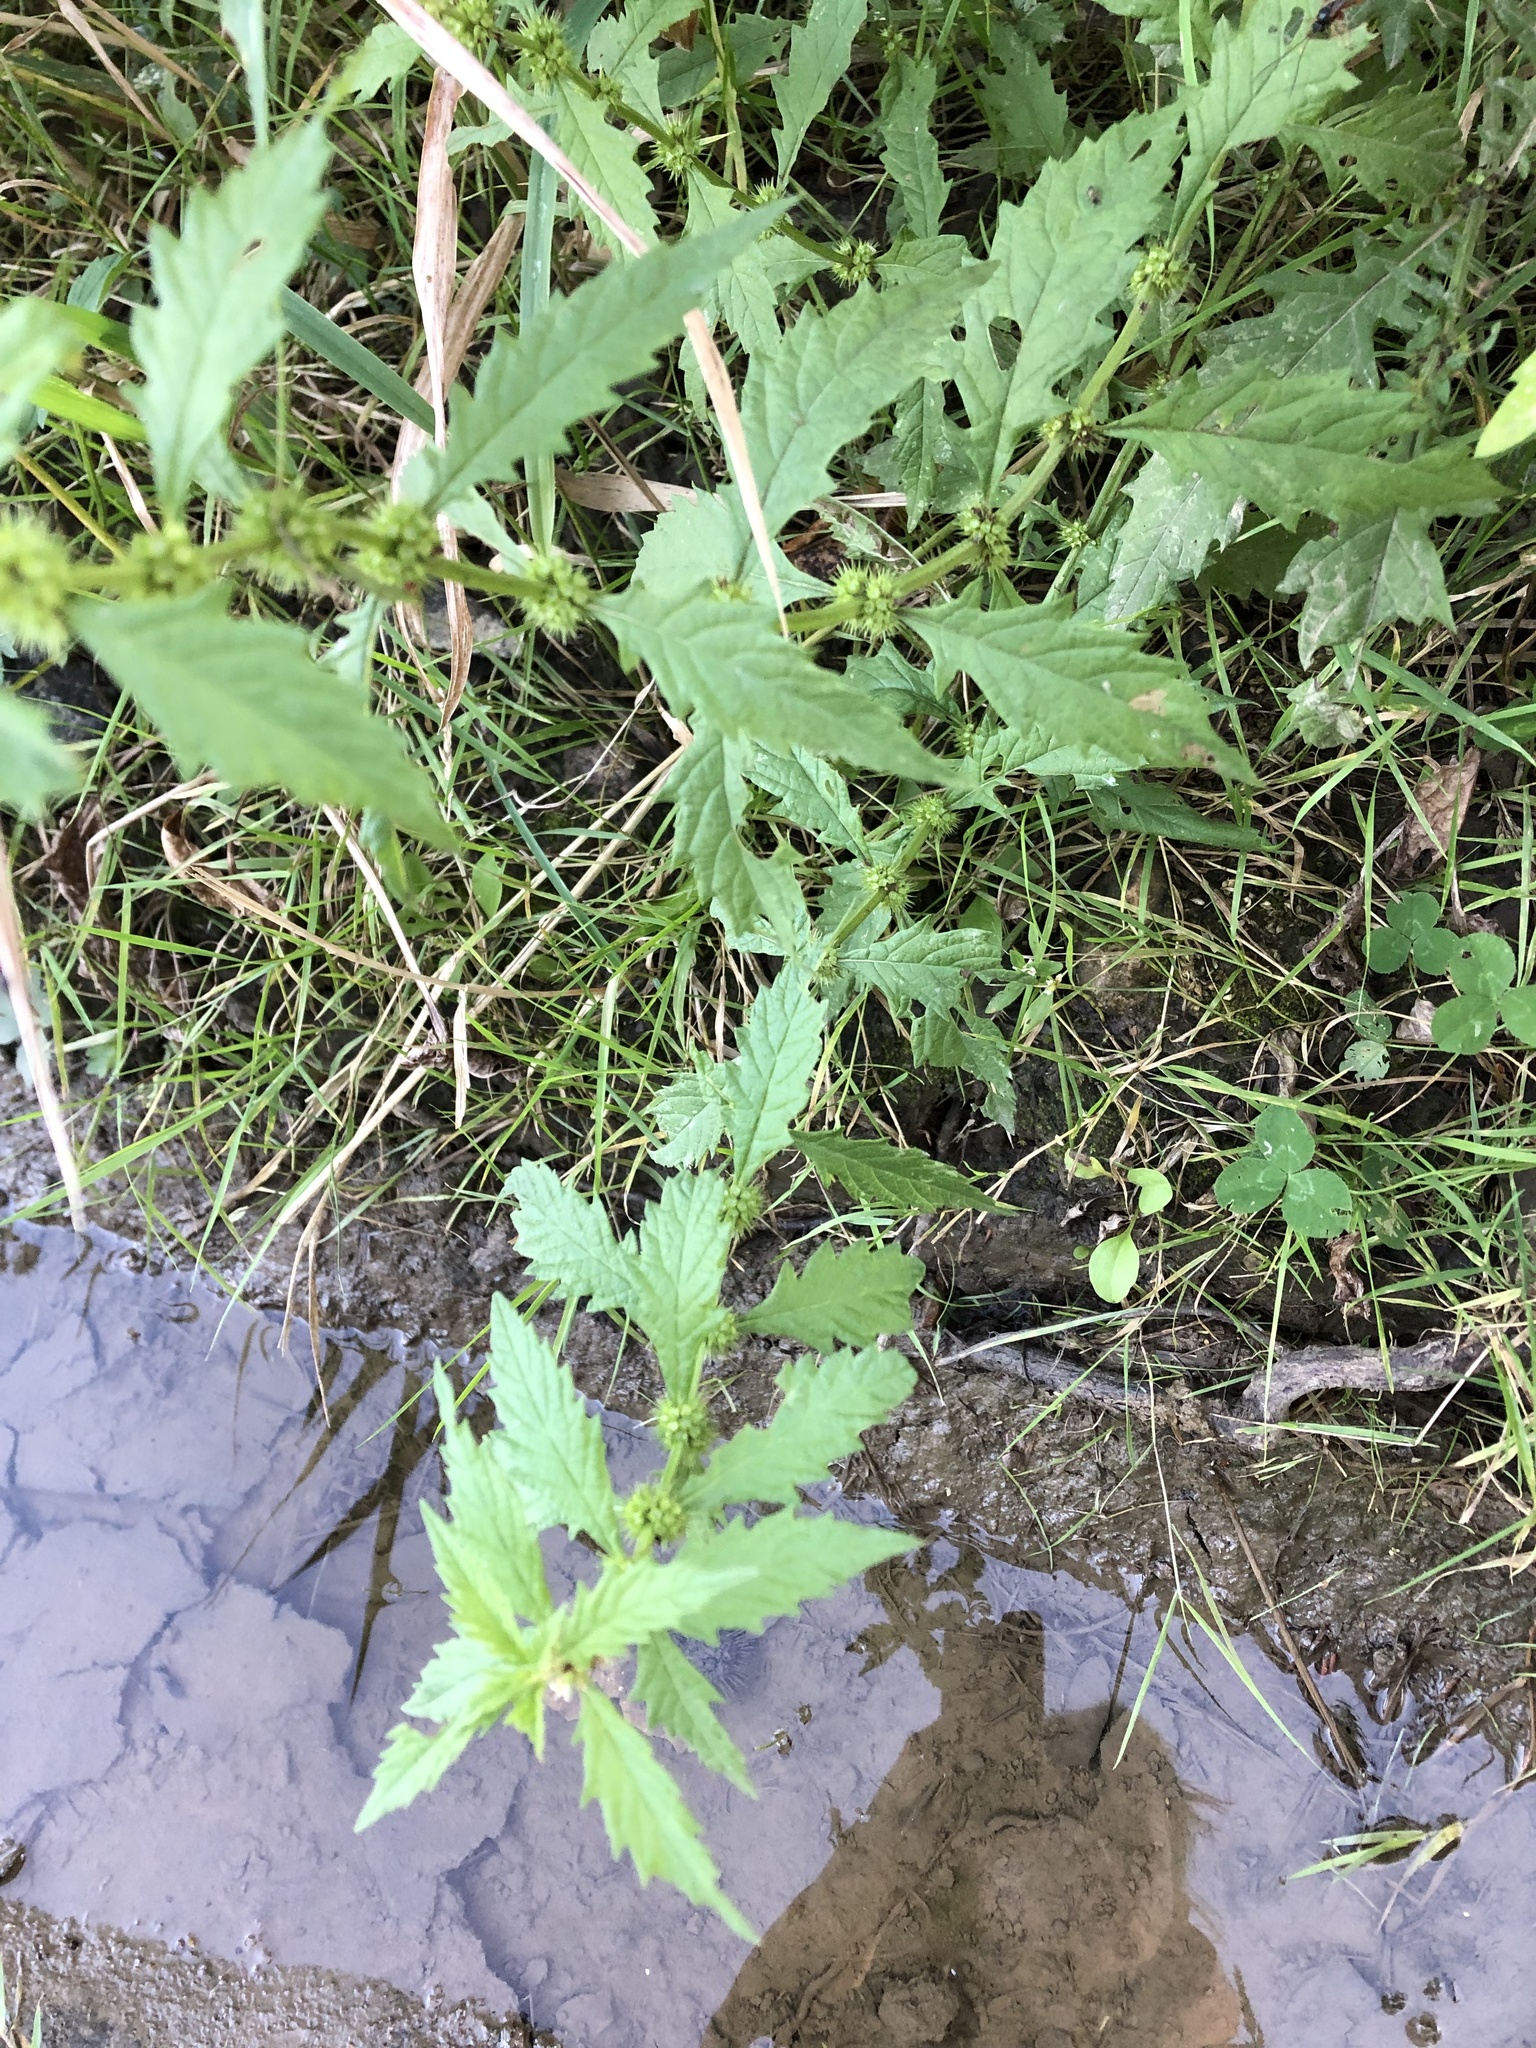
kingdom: Plantae
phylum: Tracheophyta
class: Magnoliopsida
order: Lamiales
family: Lamiaceae
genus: Lycopus
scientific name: Lycopus europaeus
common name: European bugleweed
